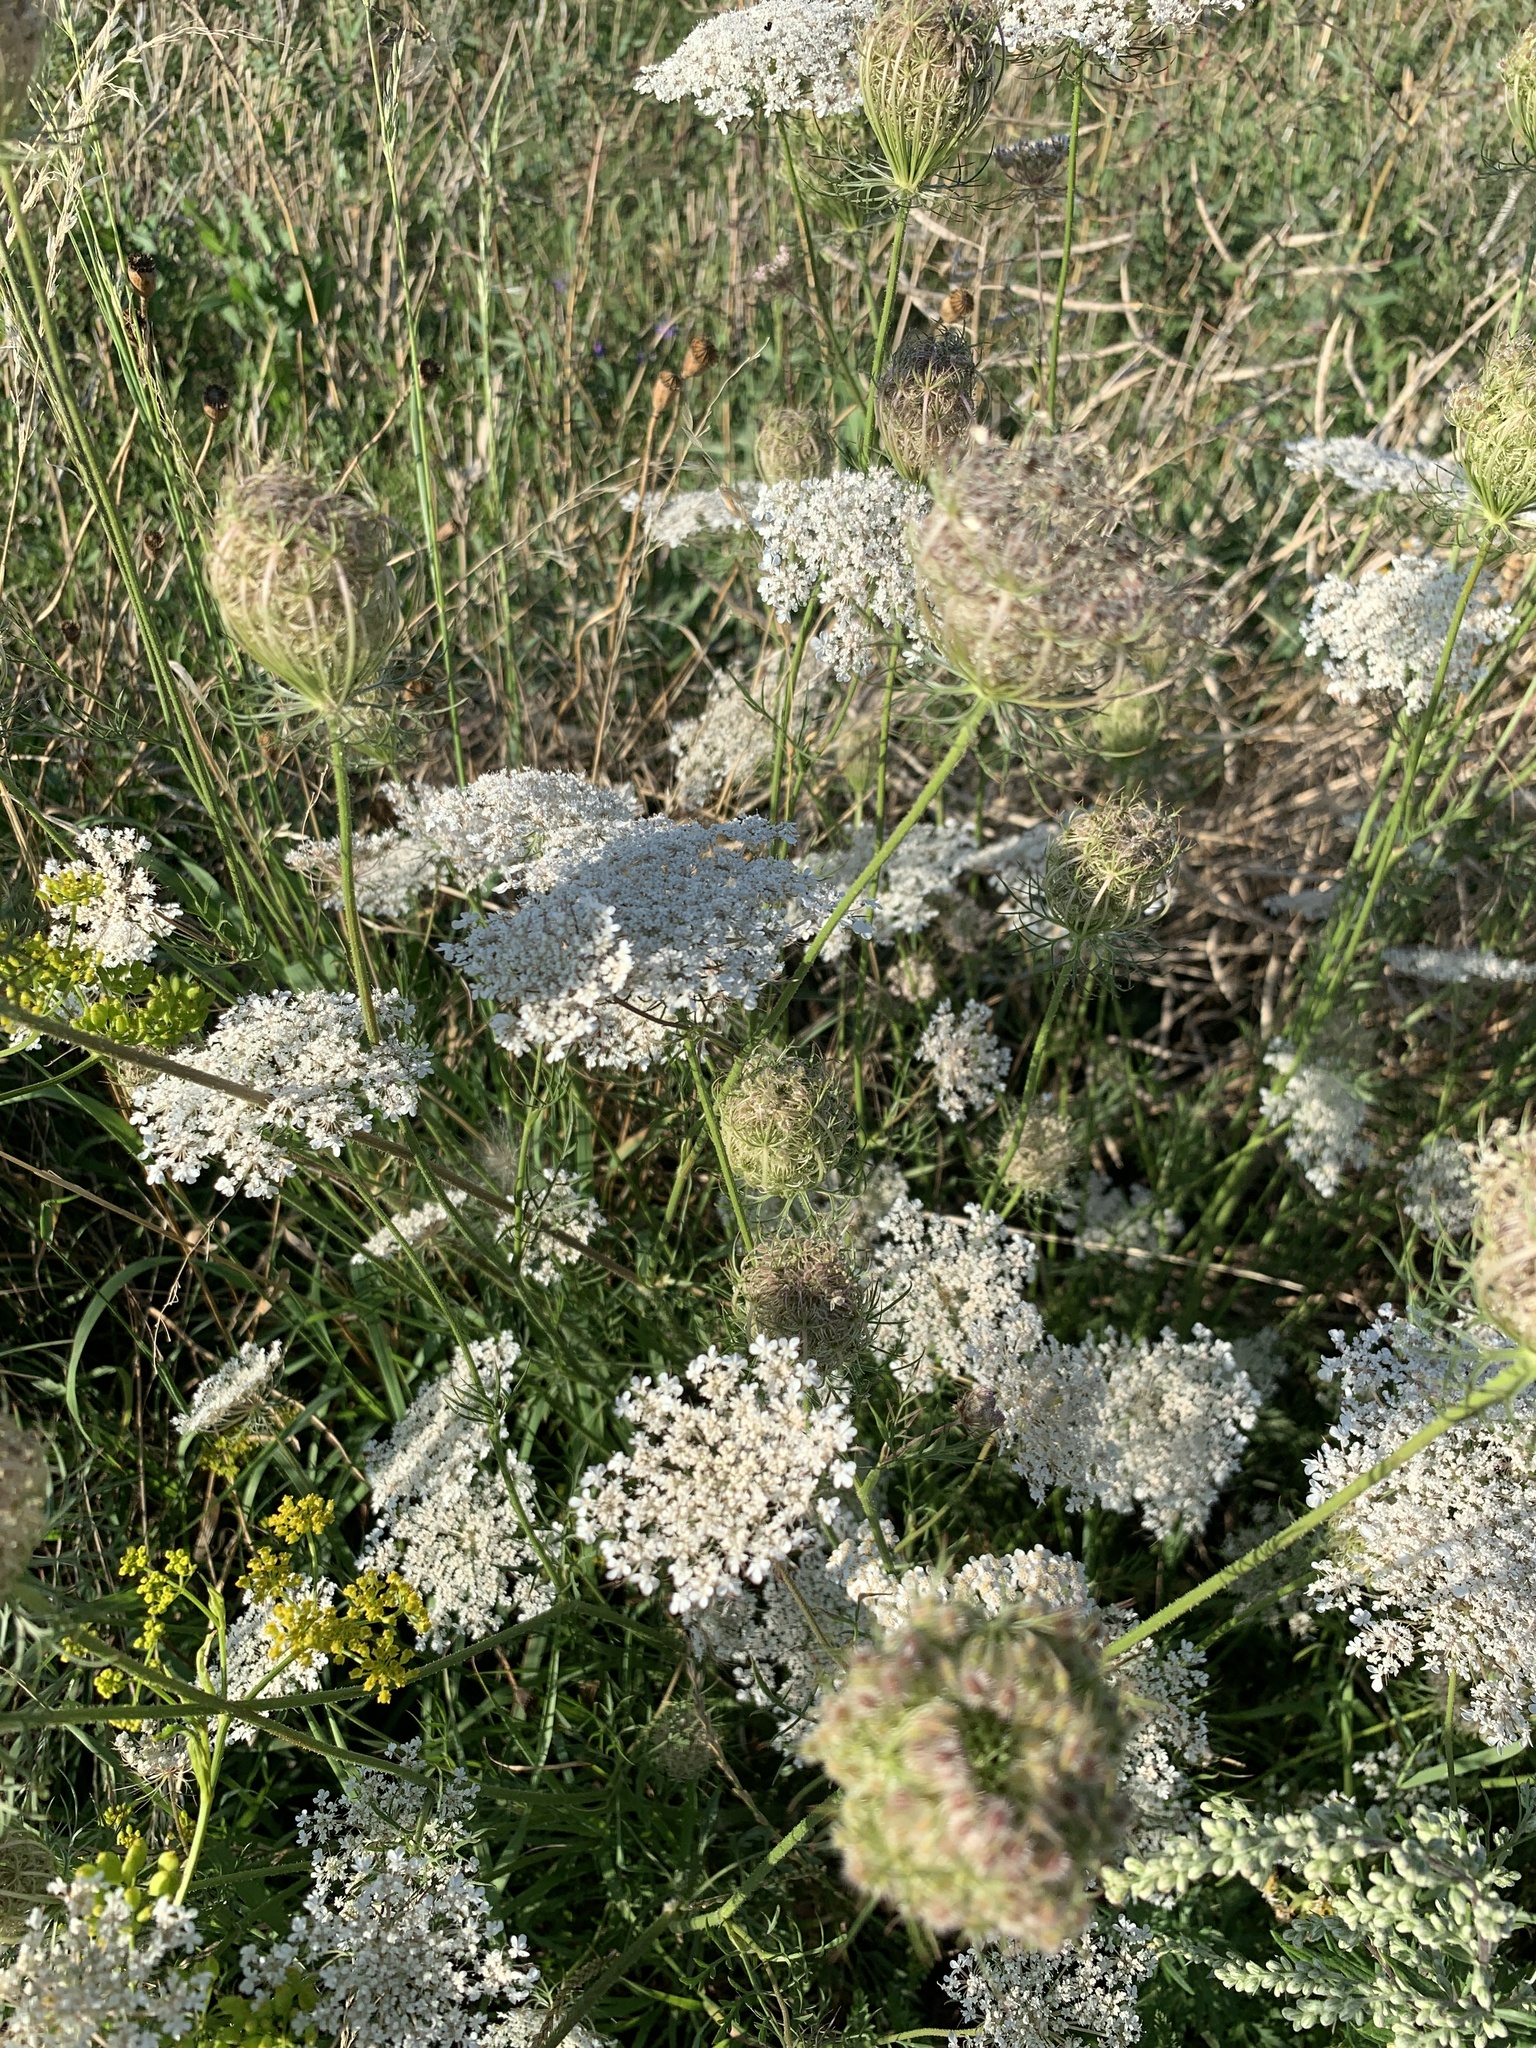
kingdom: Plantae
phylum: Tracheophyta
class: Magnoliopsida
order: Apiales
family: Apiaceae
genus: Daucus
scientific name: Daucus carota
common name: Wild carrot
